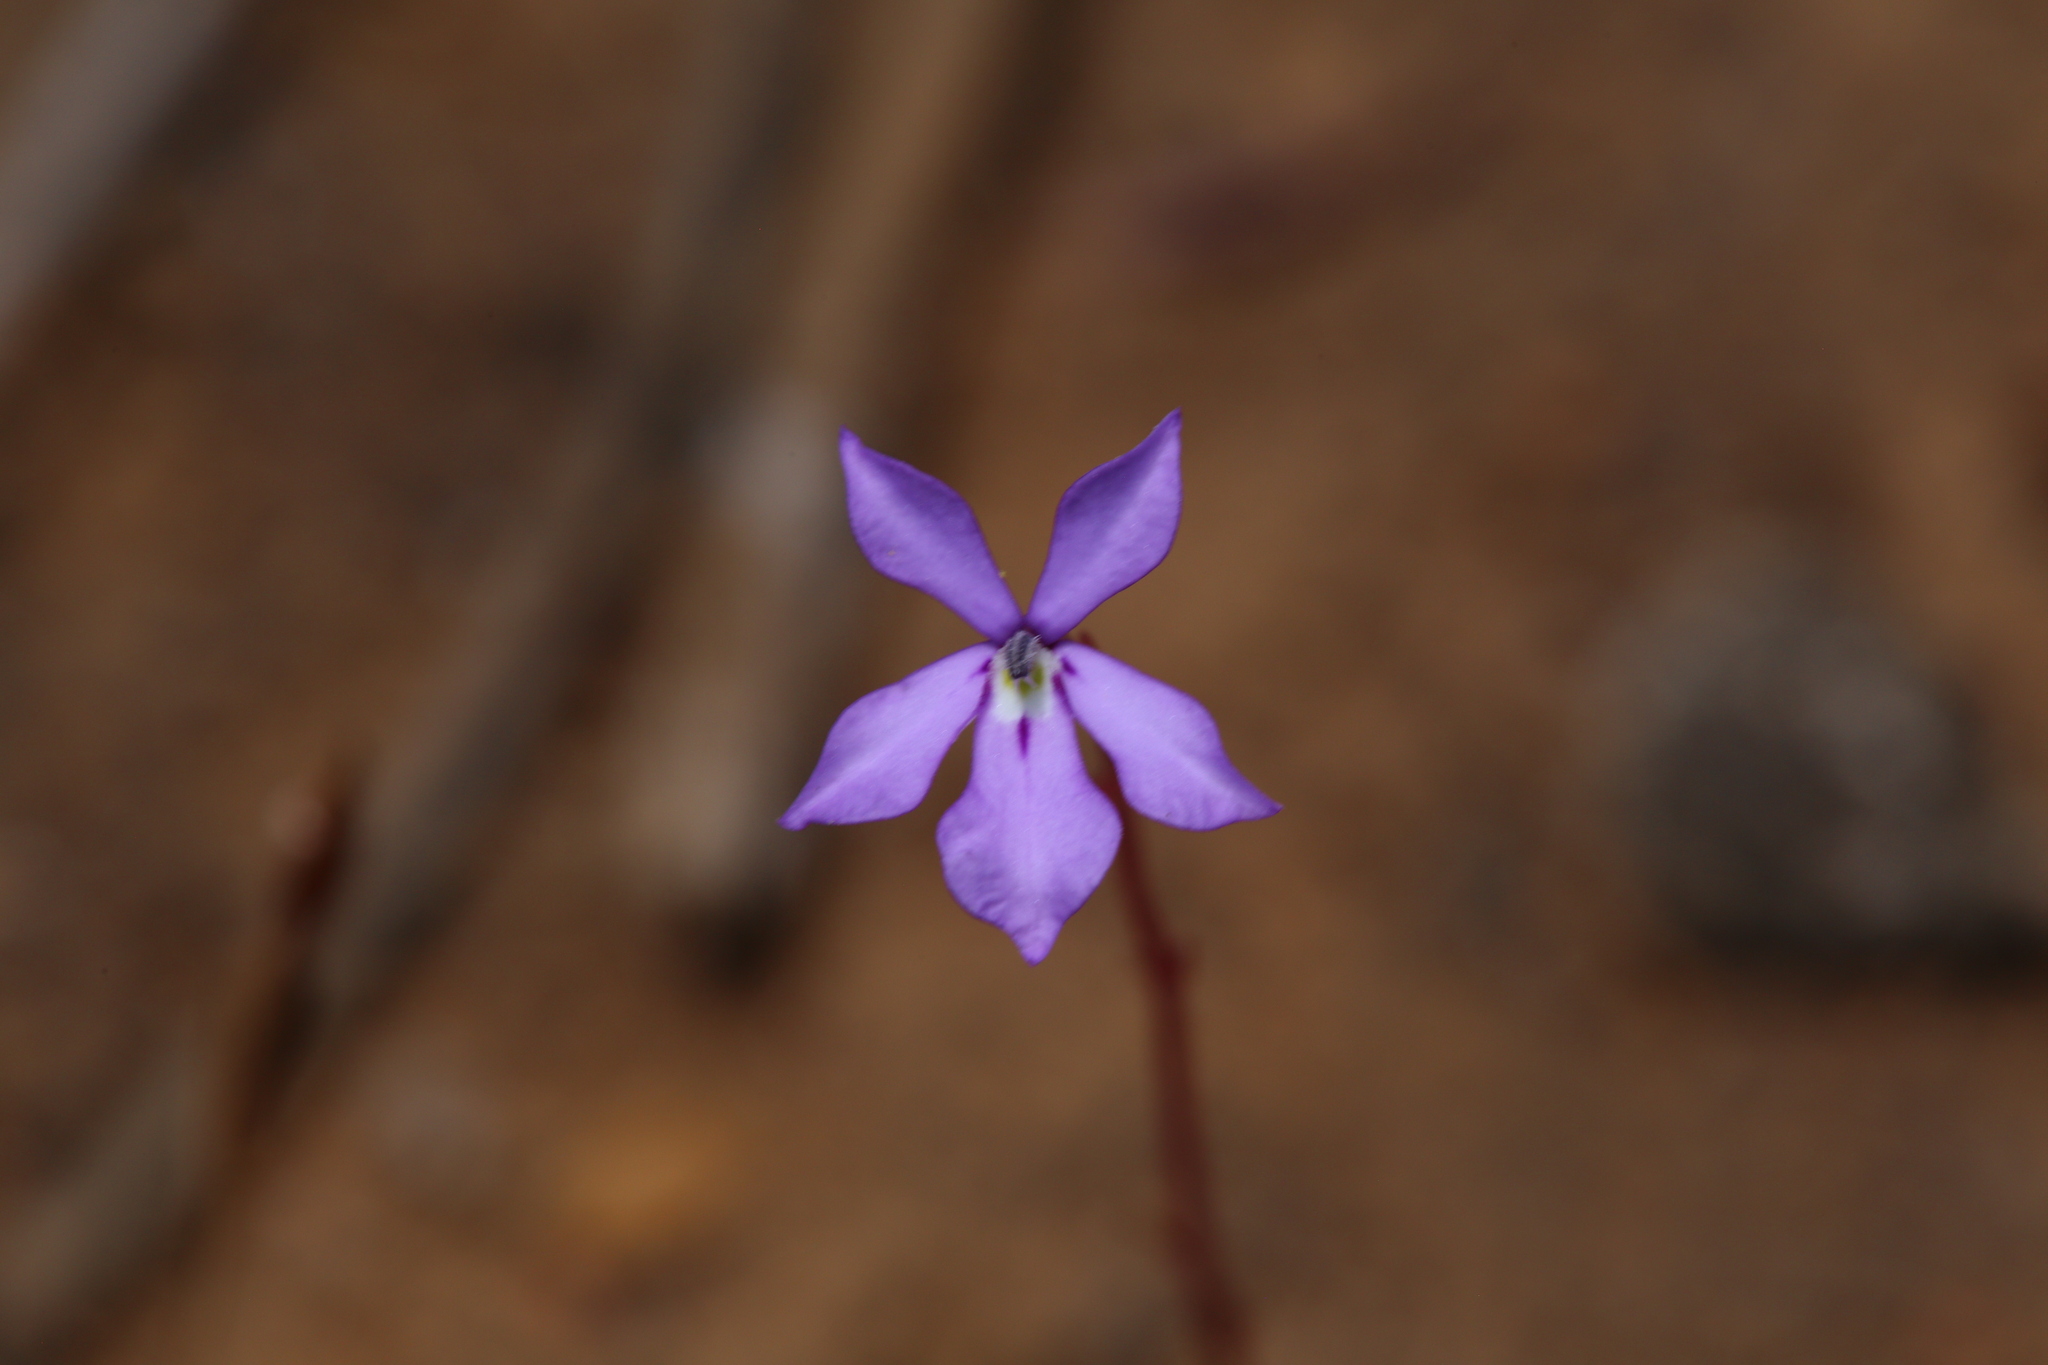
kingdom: Plantae
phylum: Tracheophyta
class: Magnoliopsida
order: Asterales
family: Campanulaceae
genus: Isotoma
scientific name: Isotoma hypocrateriformis
